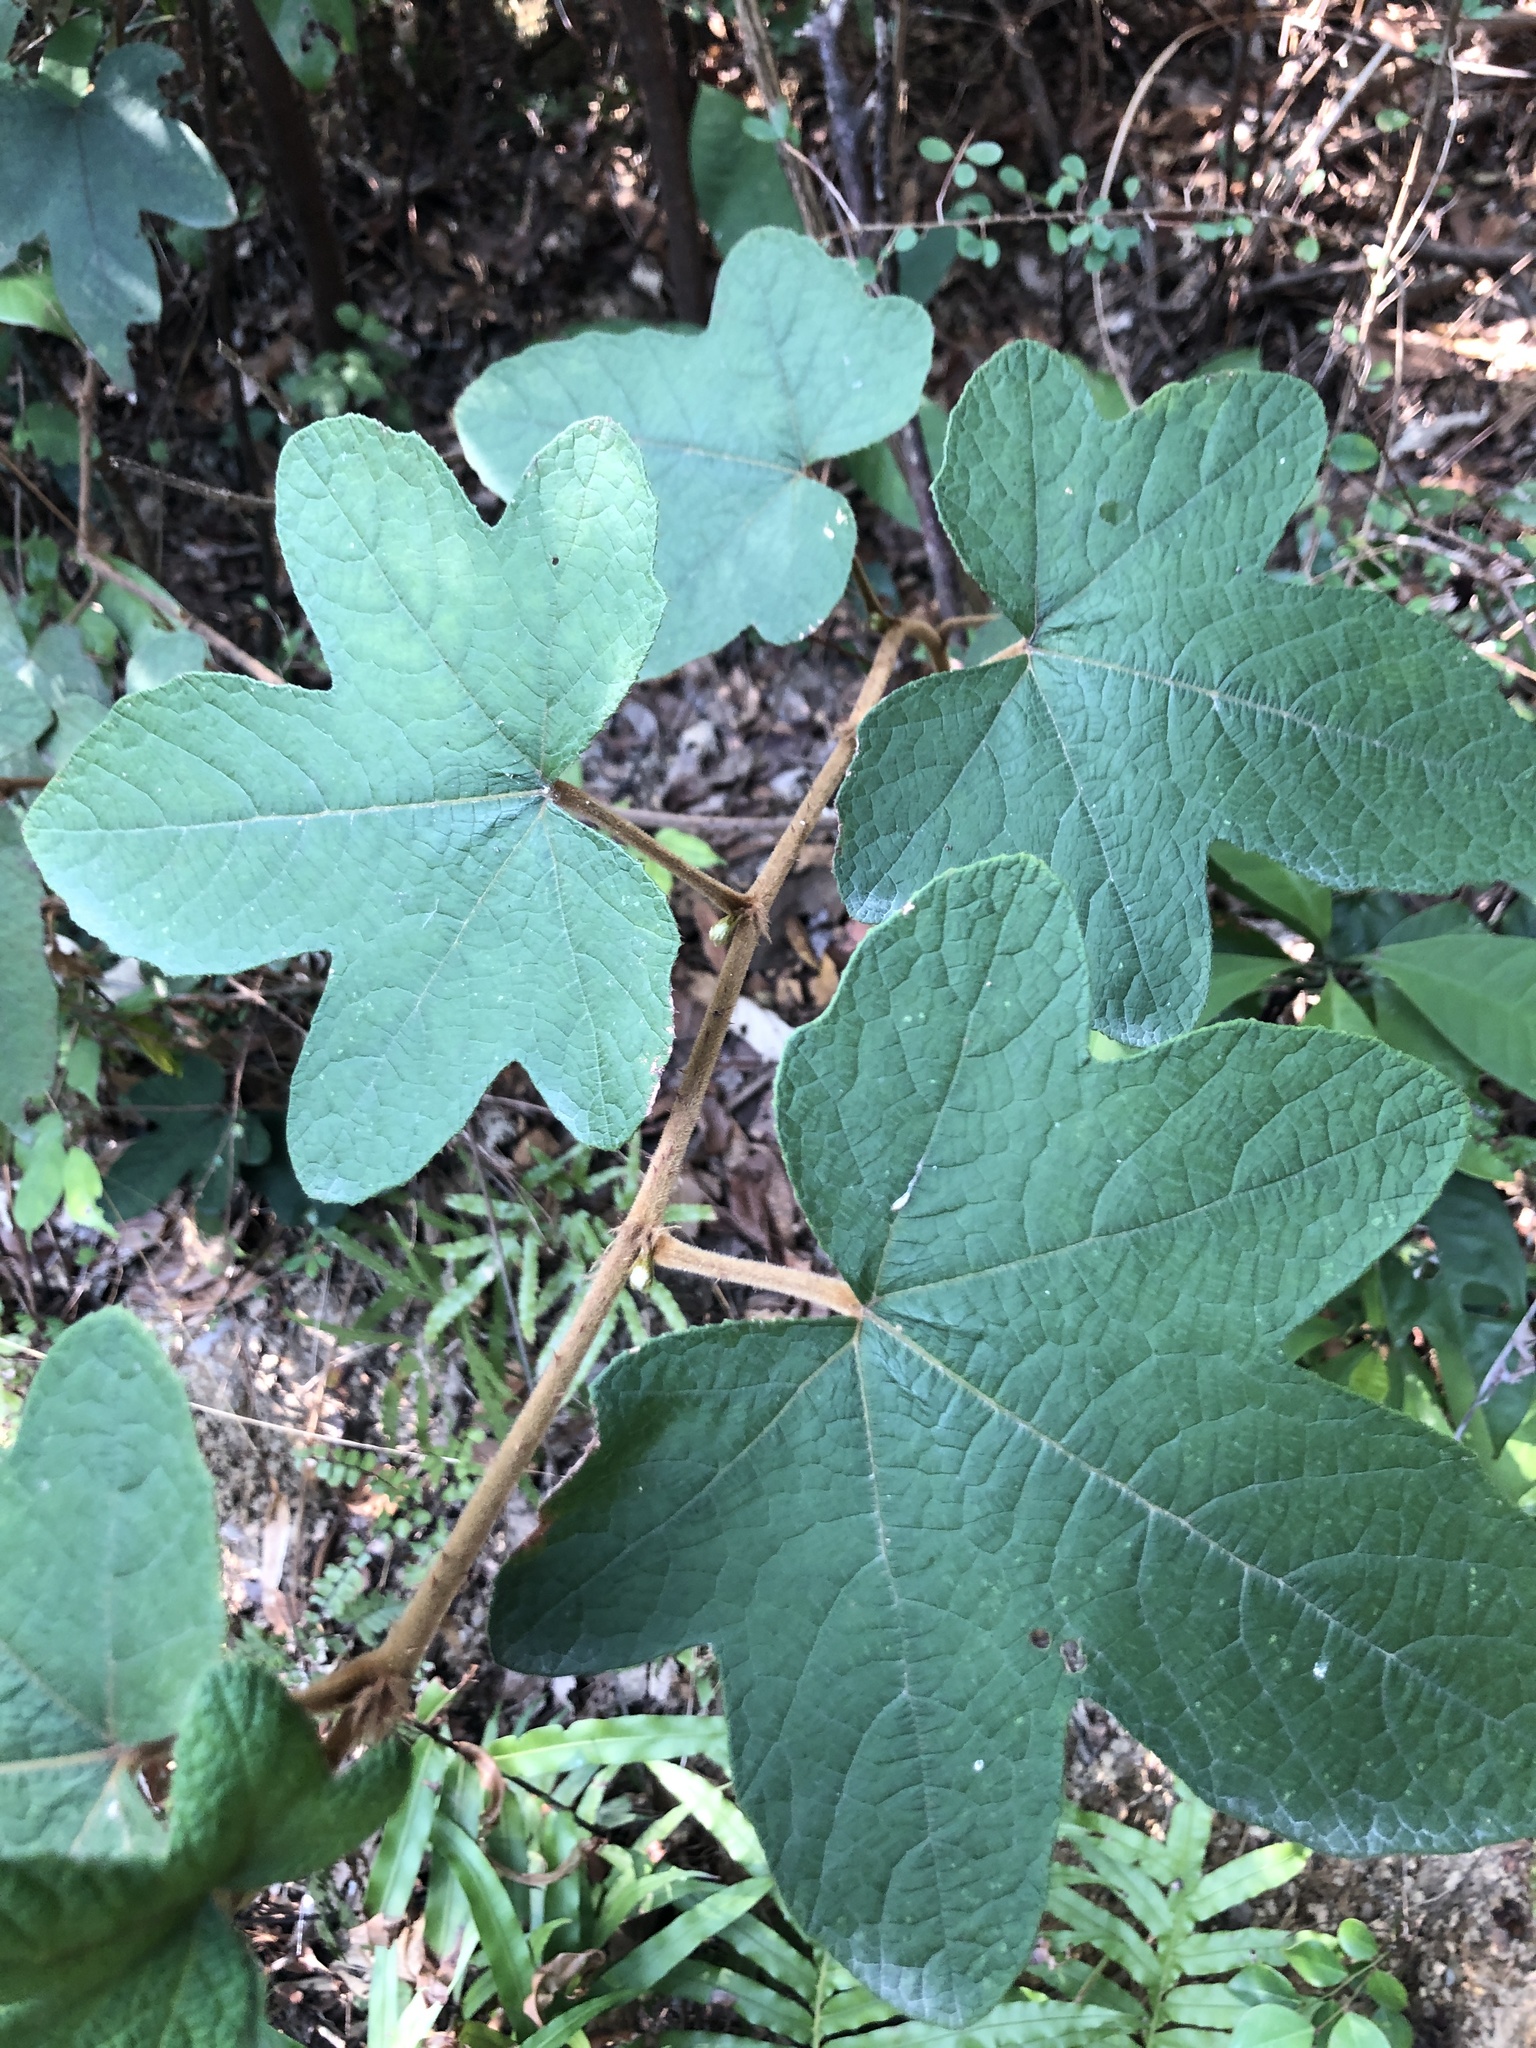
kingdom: Plantae
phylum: Tracheophyta
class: Magnoliopsida
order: Rosales
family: Rosaceae
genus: Rubus
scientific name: Rubus reflexus
